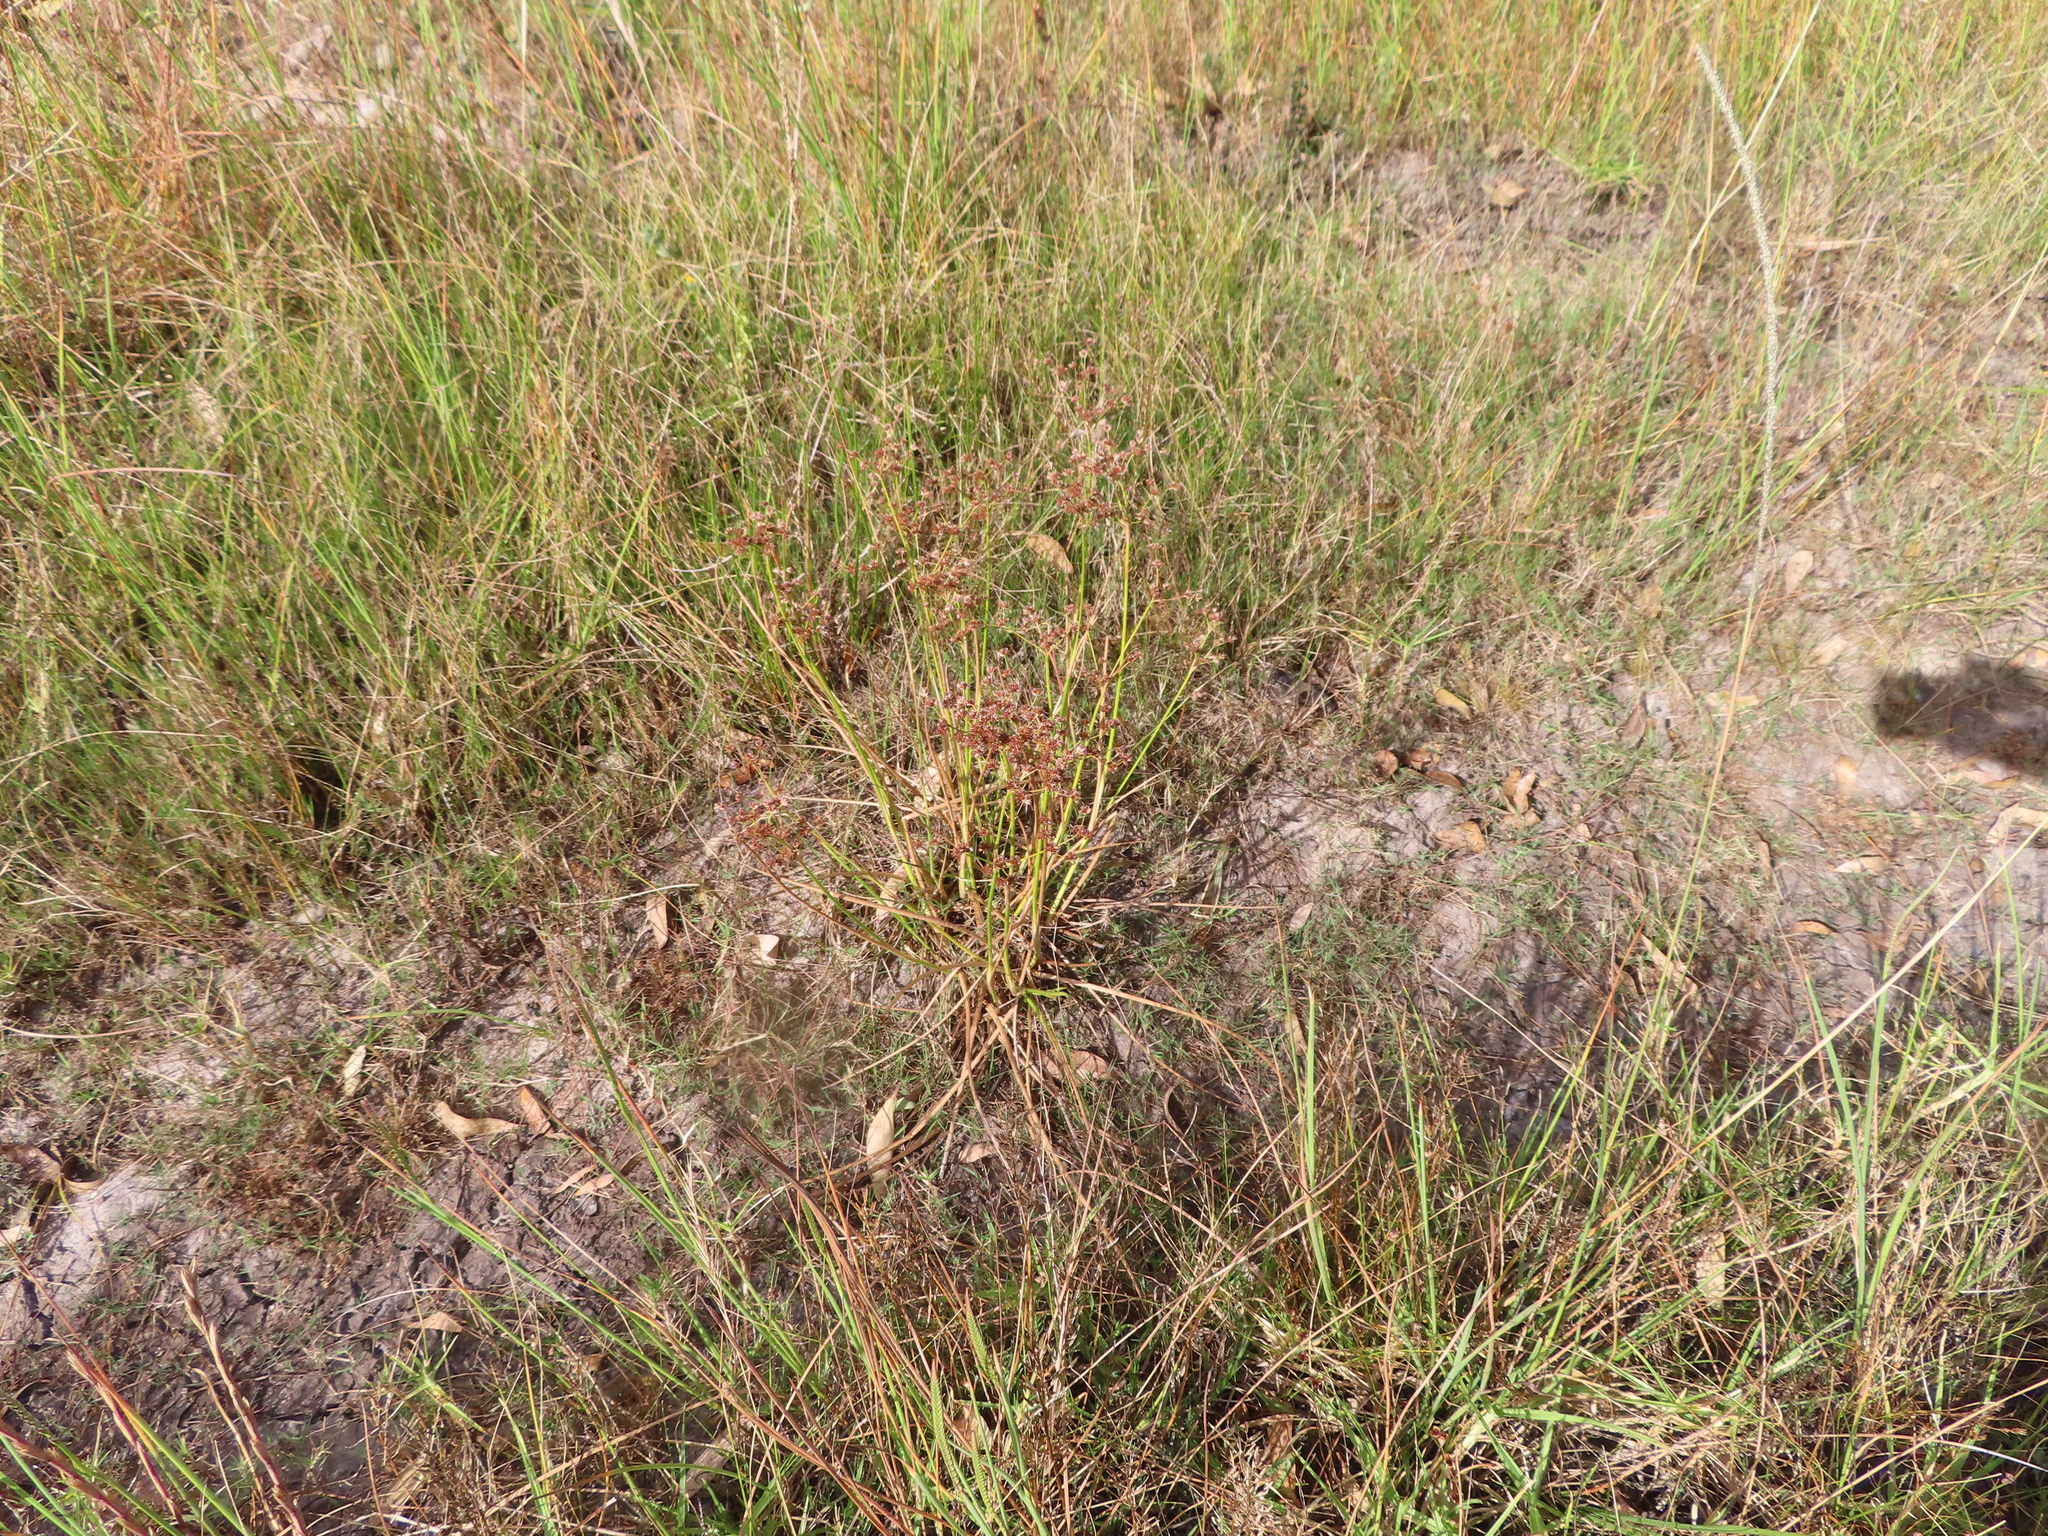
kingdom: Plantae
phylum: Tracheophyta
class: Liliopsida
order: Poales
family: Juncaceae
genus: Juncus
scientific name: Juncus oxycarpus
